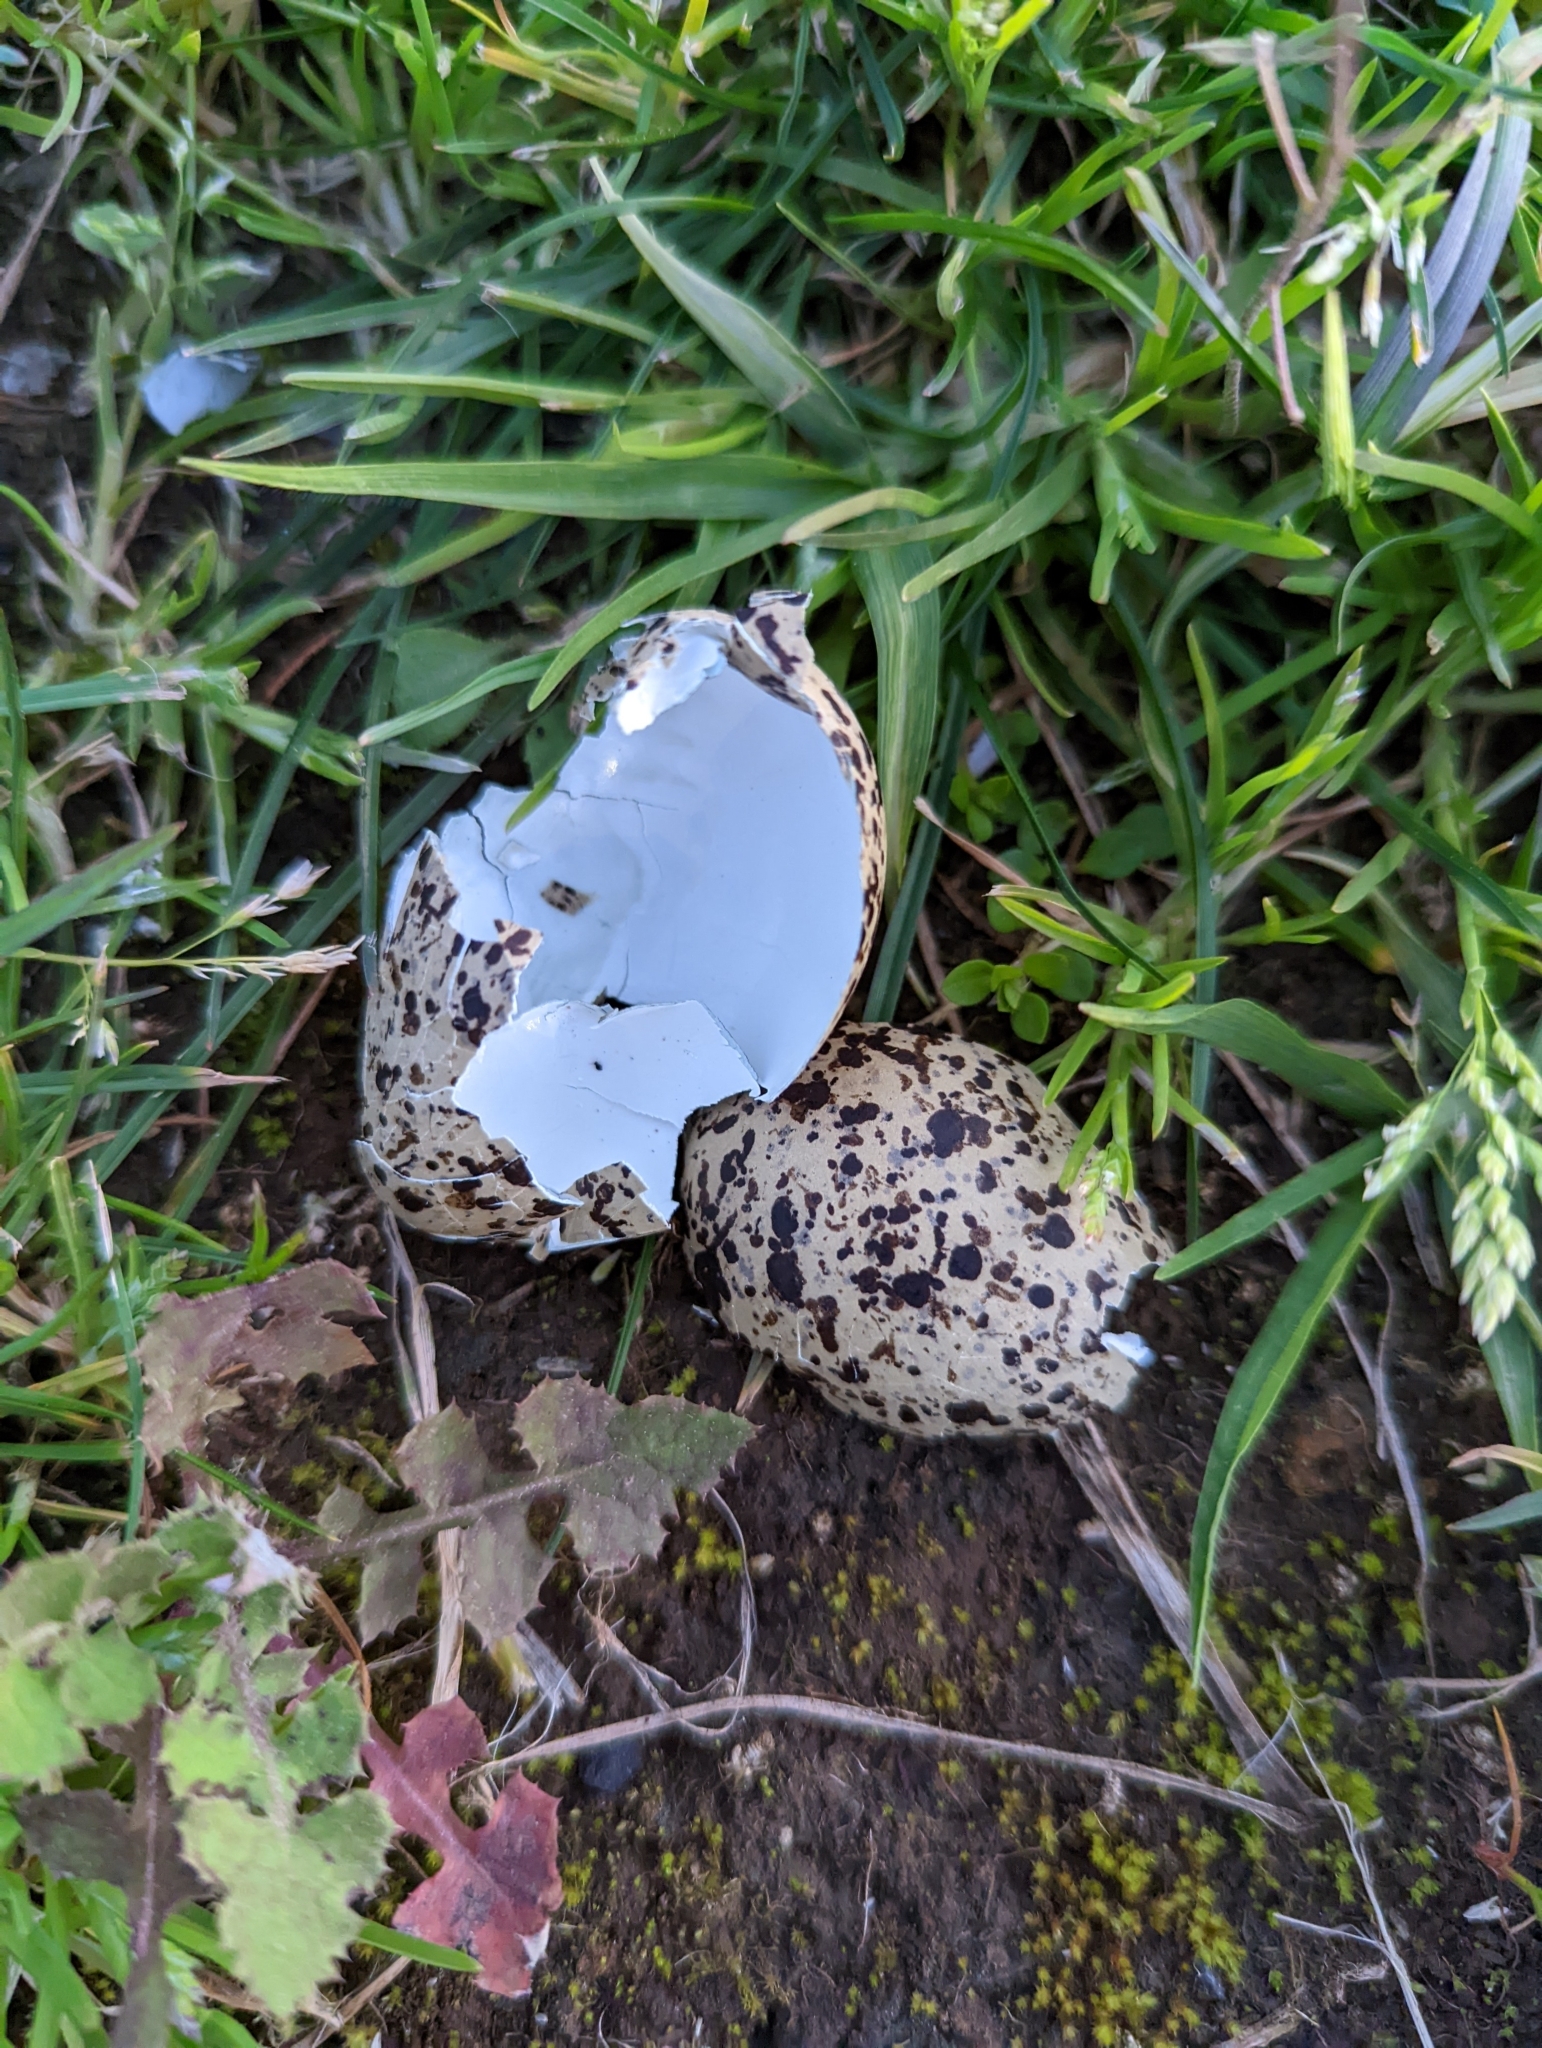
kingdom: Animalia
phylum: Chordata
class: Aves
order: Charadriiformes
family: Charadriidae
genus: Vanellus
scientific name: Vanellus miles
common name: Masked lapwing
